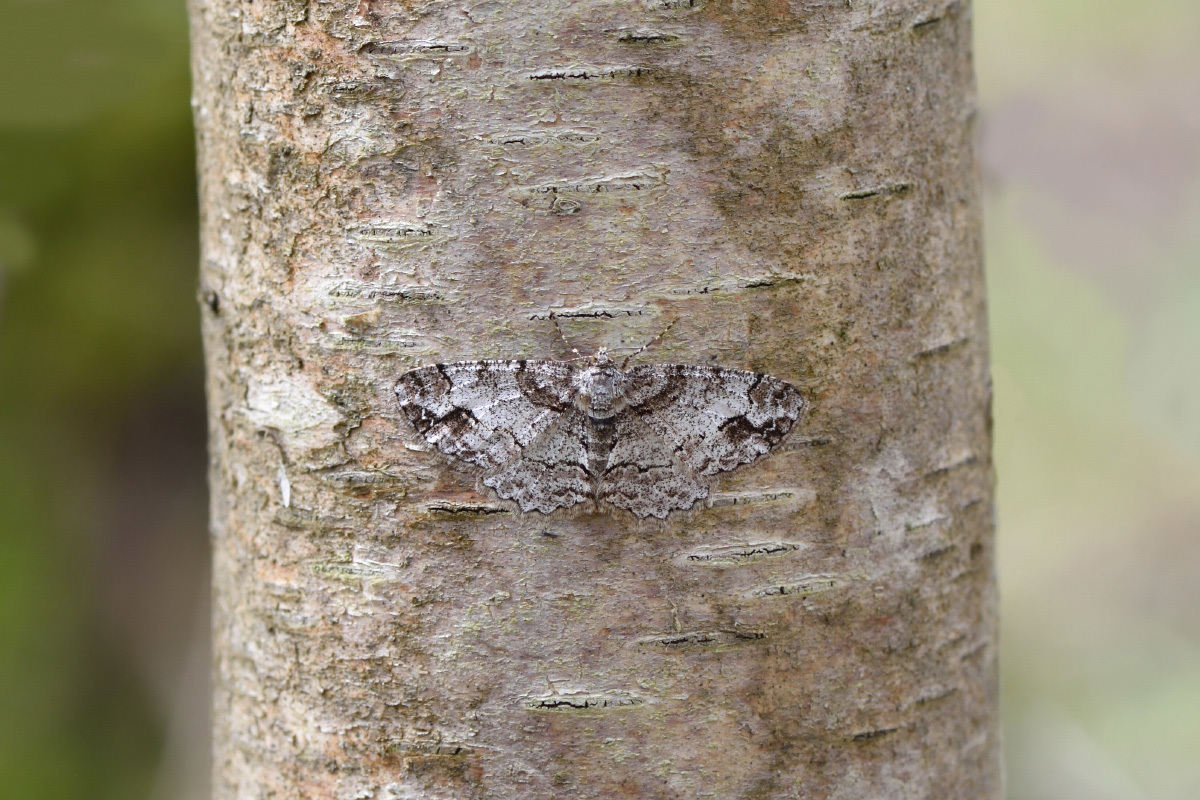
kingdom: Animalia
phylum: Arthropoda
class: Insecta
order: Lepidoptera
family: Geometridae
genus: Paradarisa
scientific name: Paradarisa consonaria
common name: Square spot
